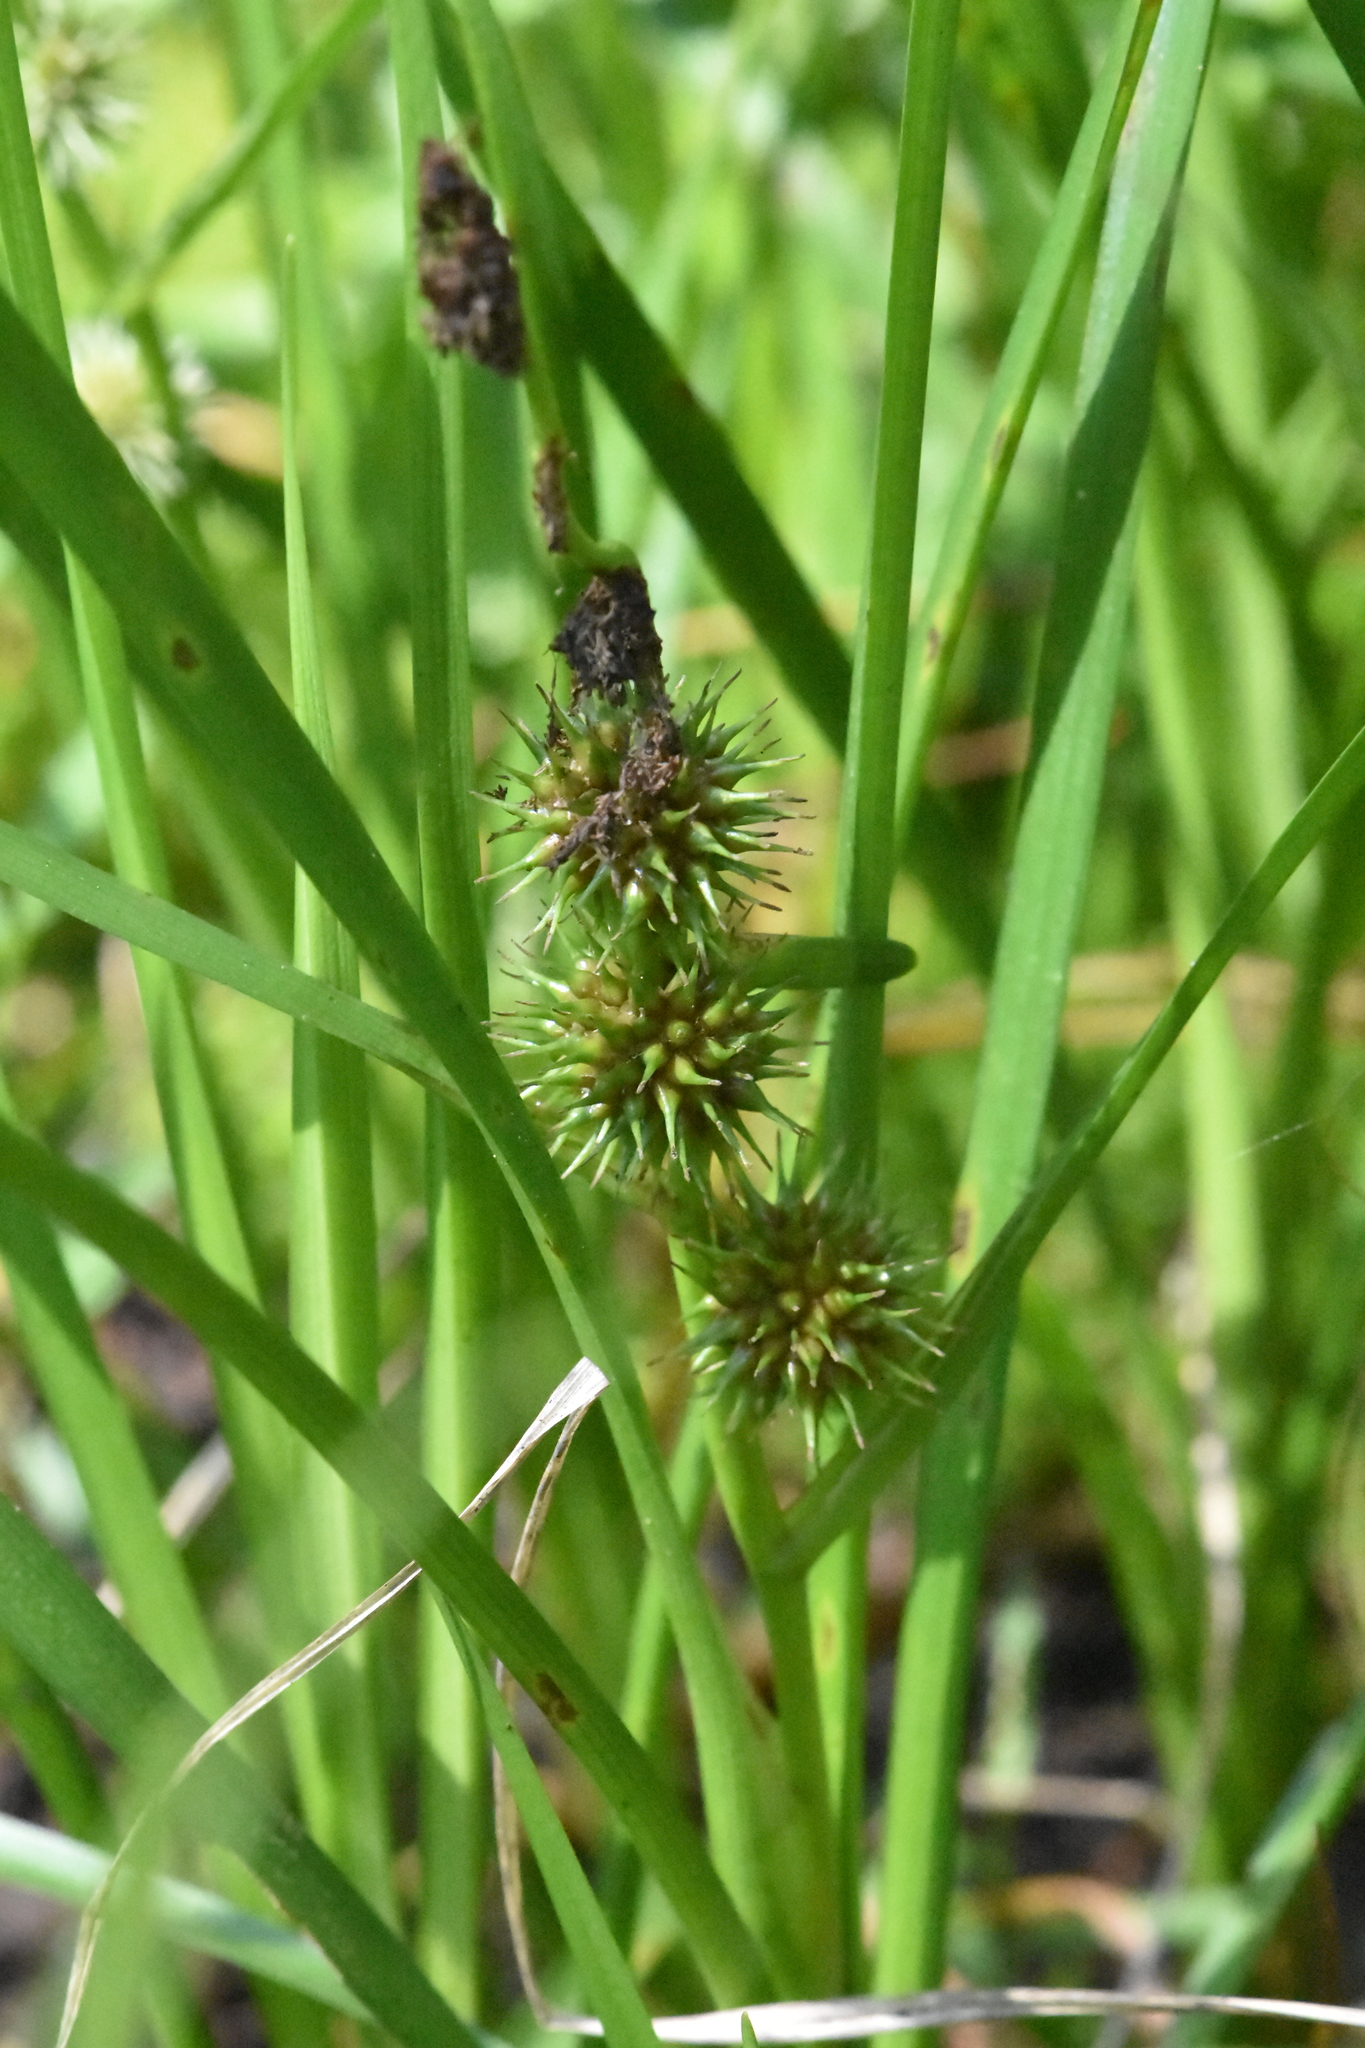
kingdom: Plantae
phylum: Tracheophyta
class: Liliopsida
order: Poales
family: Typhaceae
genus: Sparganium
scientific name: Sparganium emersum
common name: Unbranched bur-reed
